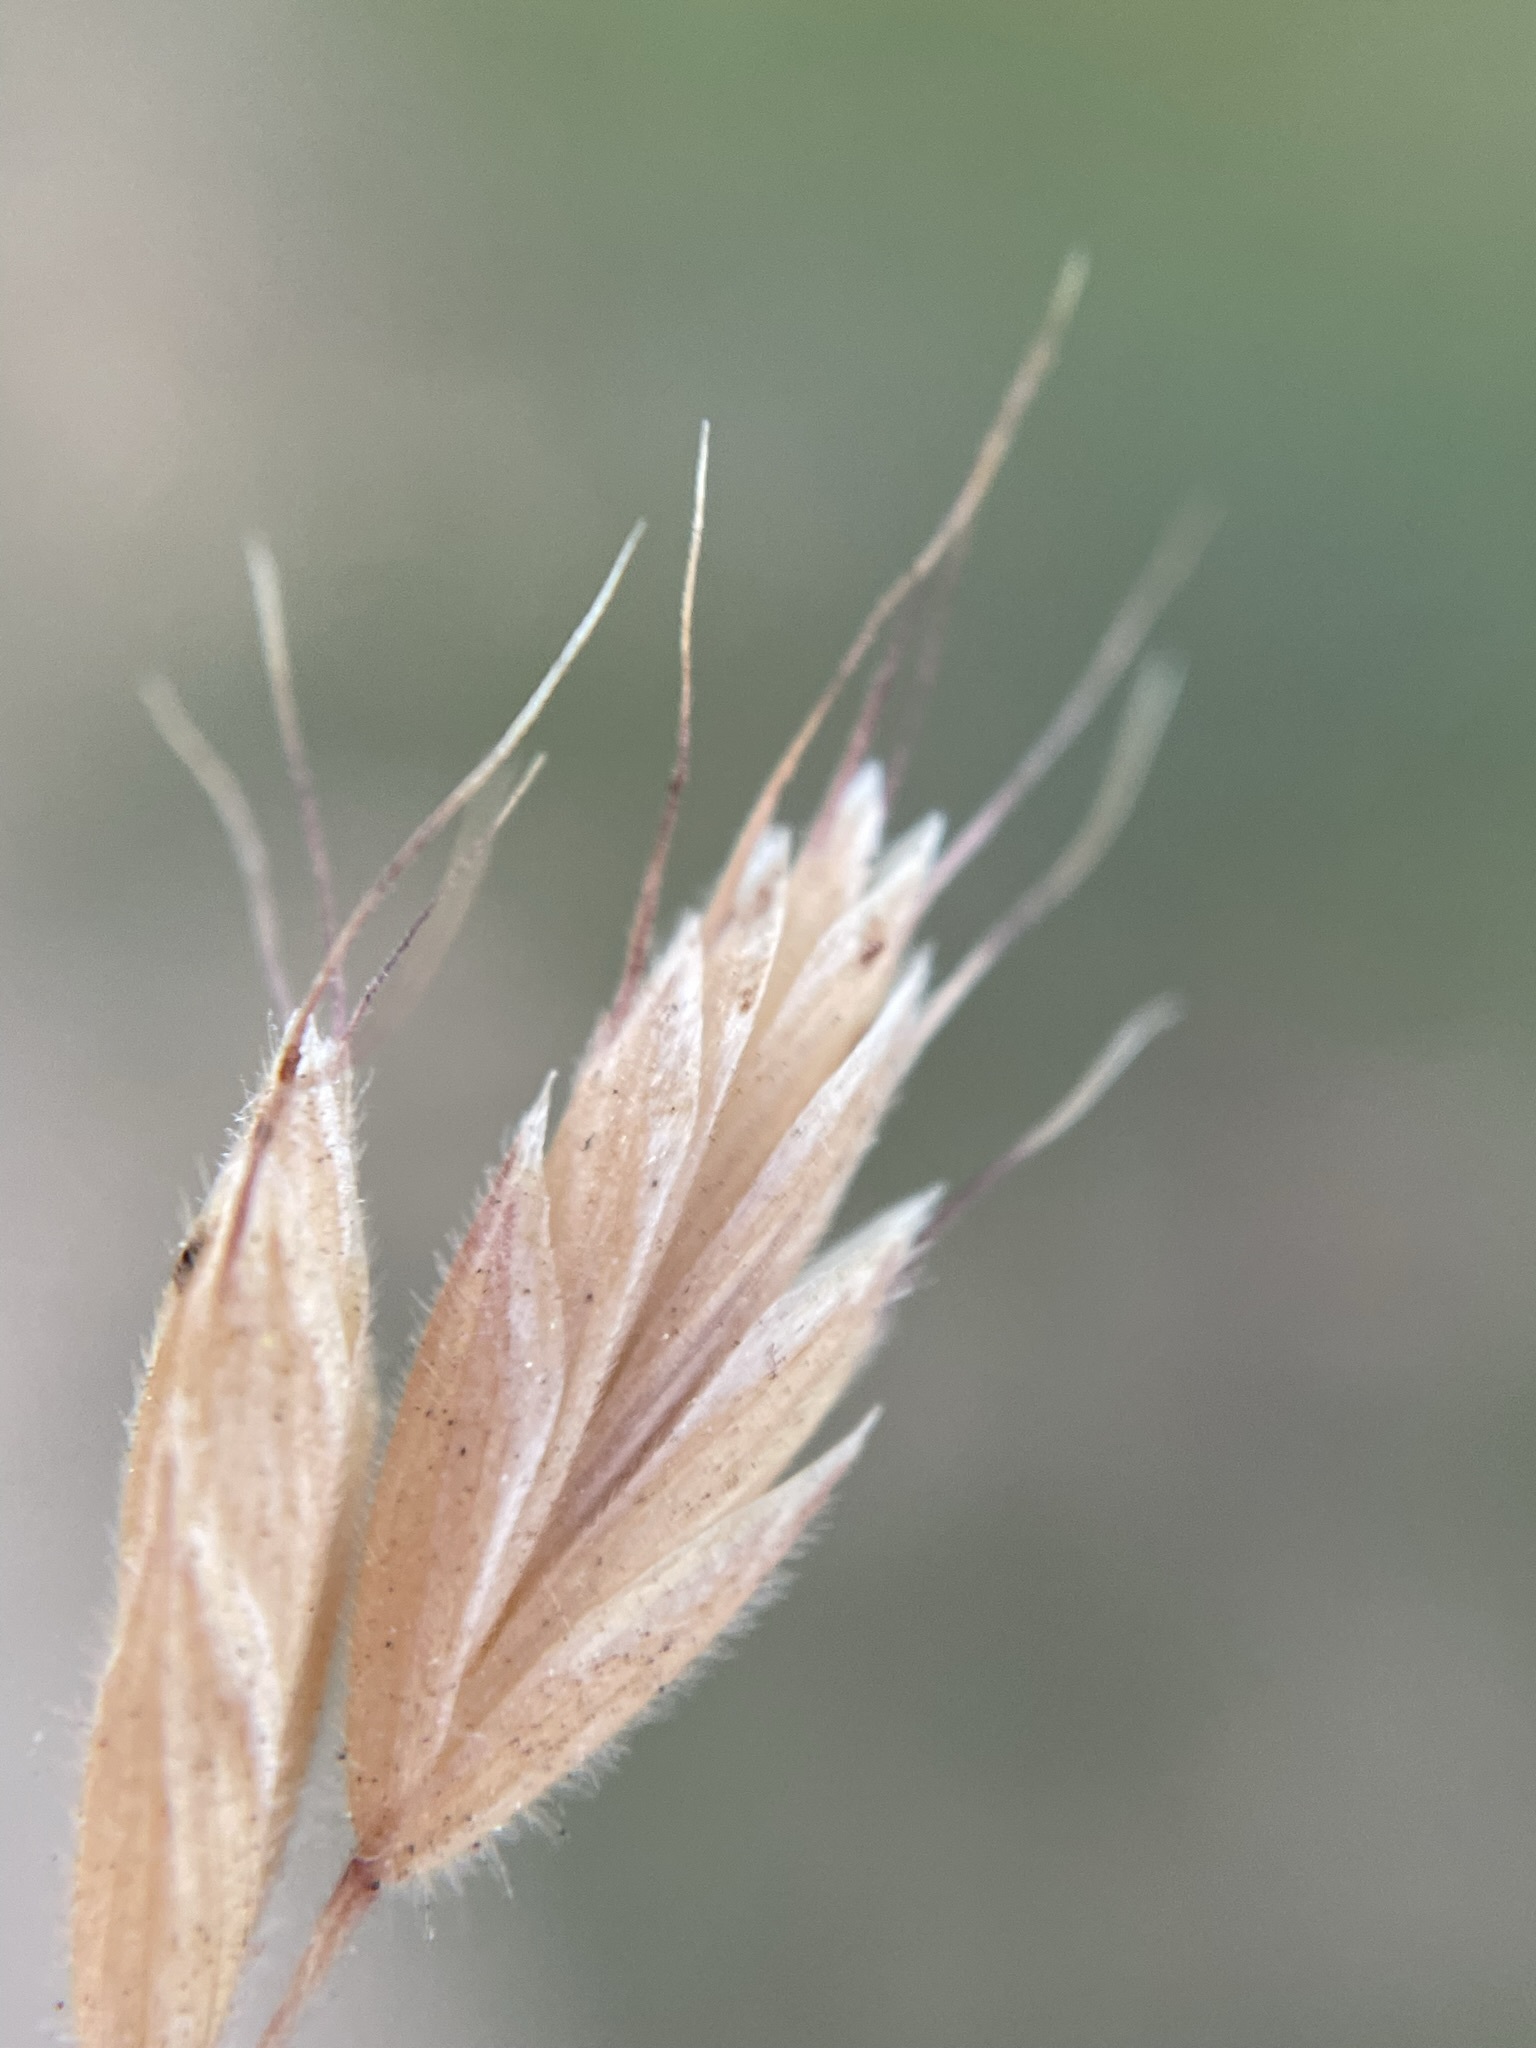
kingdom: Plantae
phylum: Tracheophyta
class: Liliopsida
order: Poales
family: Poaceae
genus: Bromus
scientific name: Bromus hordeaceus
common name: Soft brome
